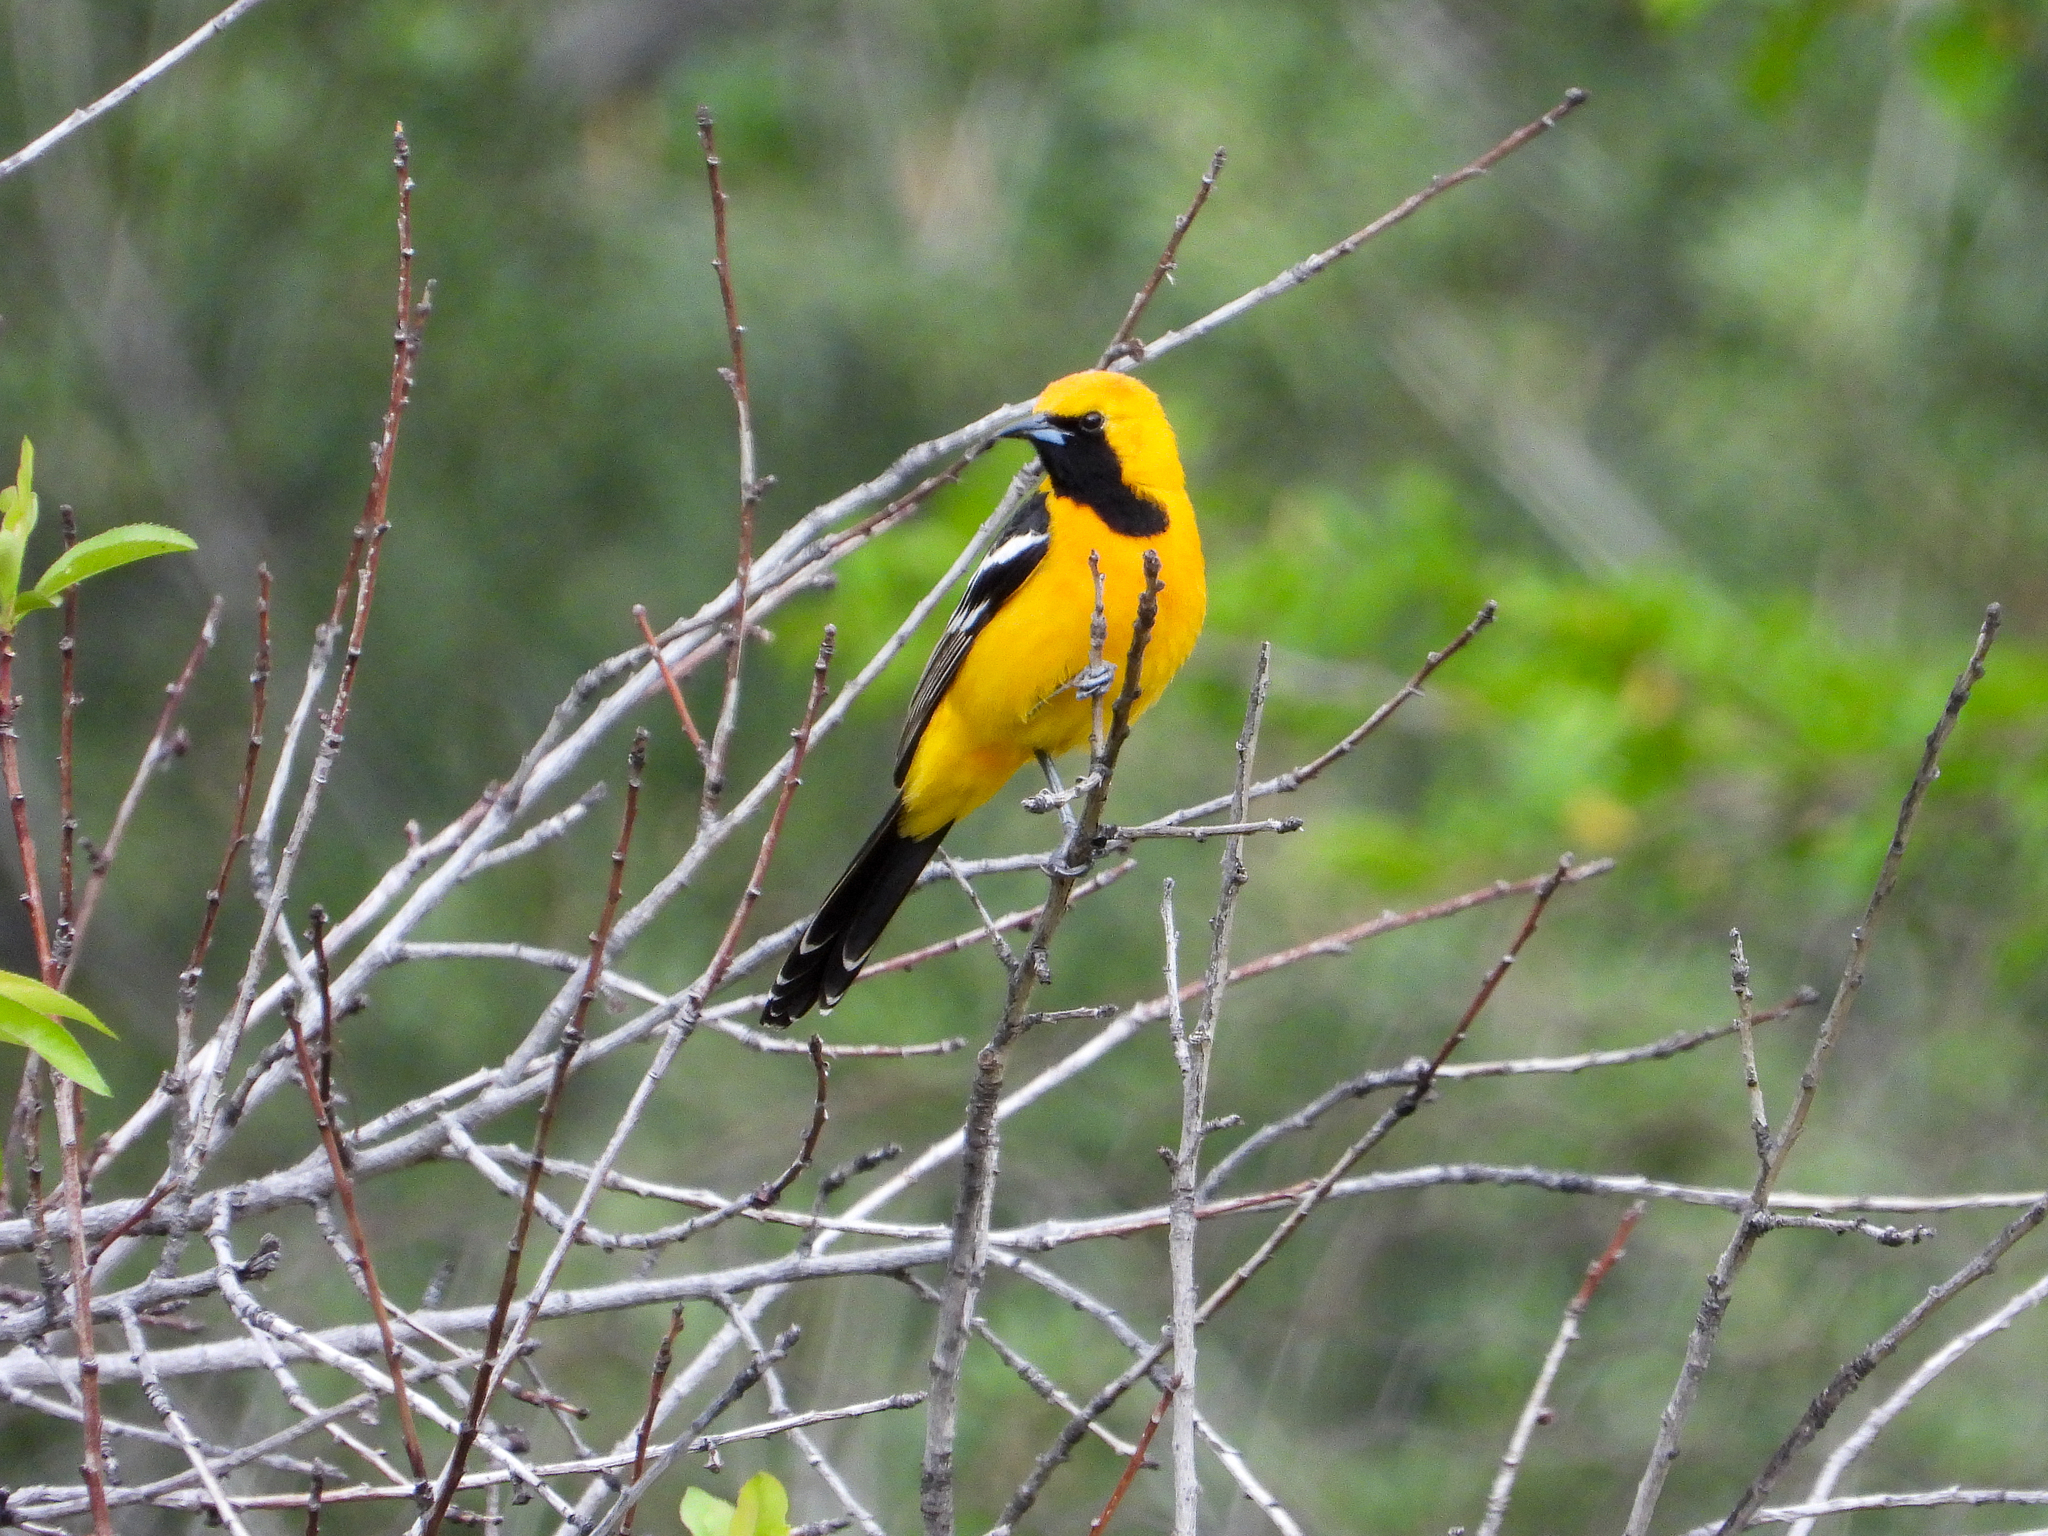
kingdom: Animalia
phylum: Chordata
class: Aves
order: Passeriformes
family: Icteridae
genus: Icterus
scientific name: Icterus cucullatus
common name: Hooded oriole
